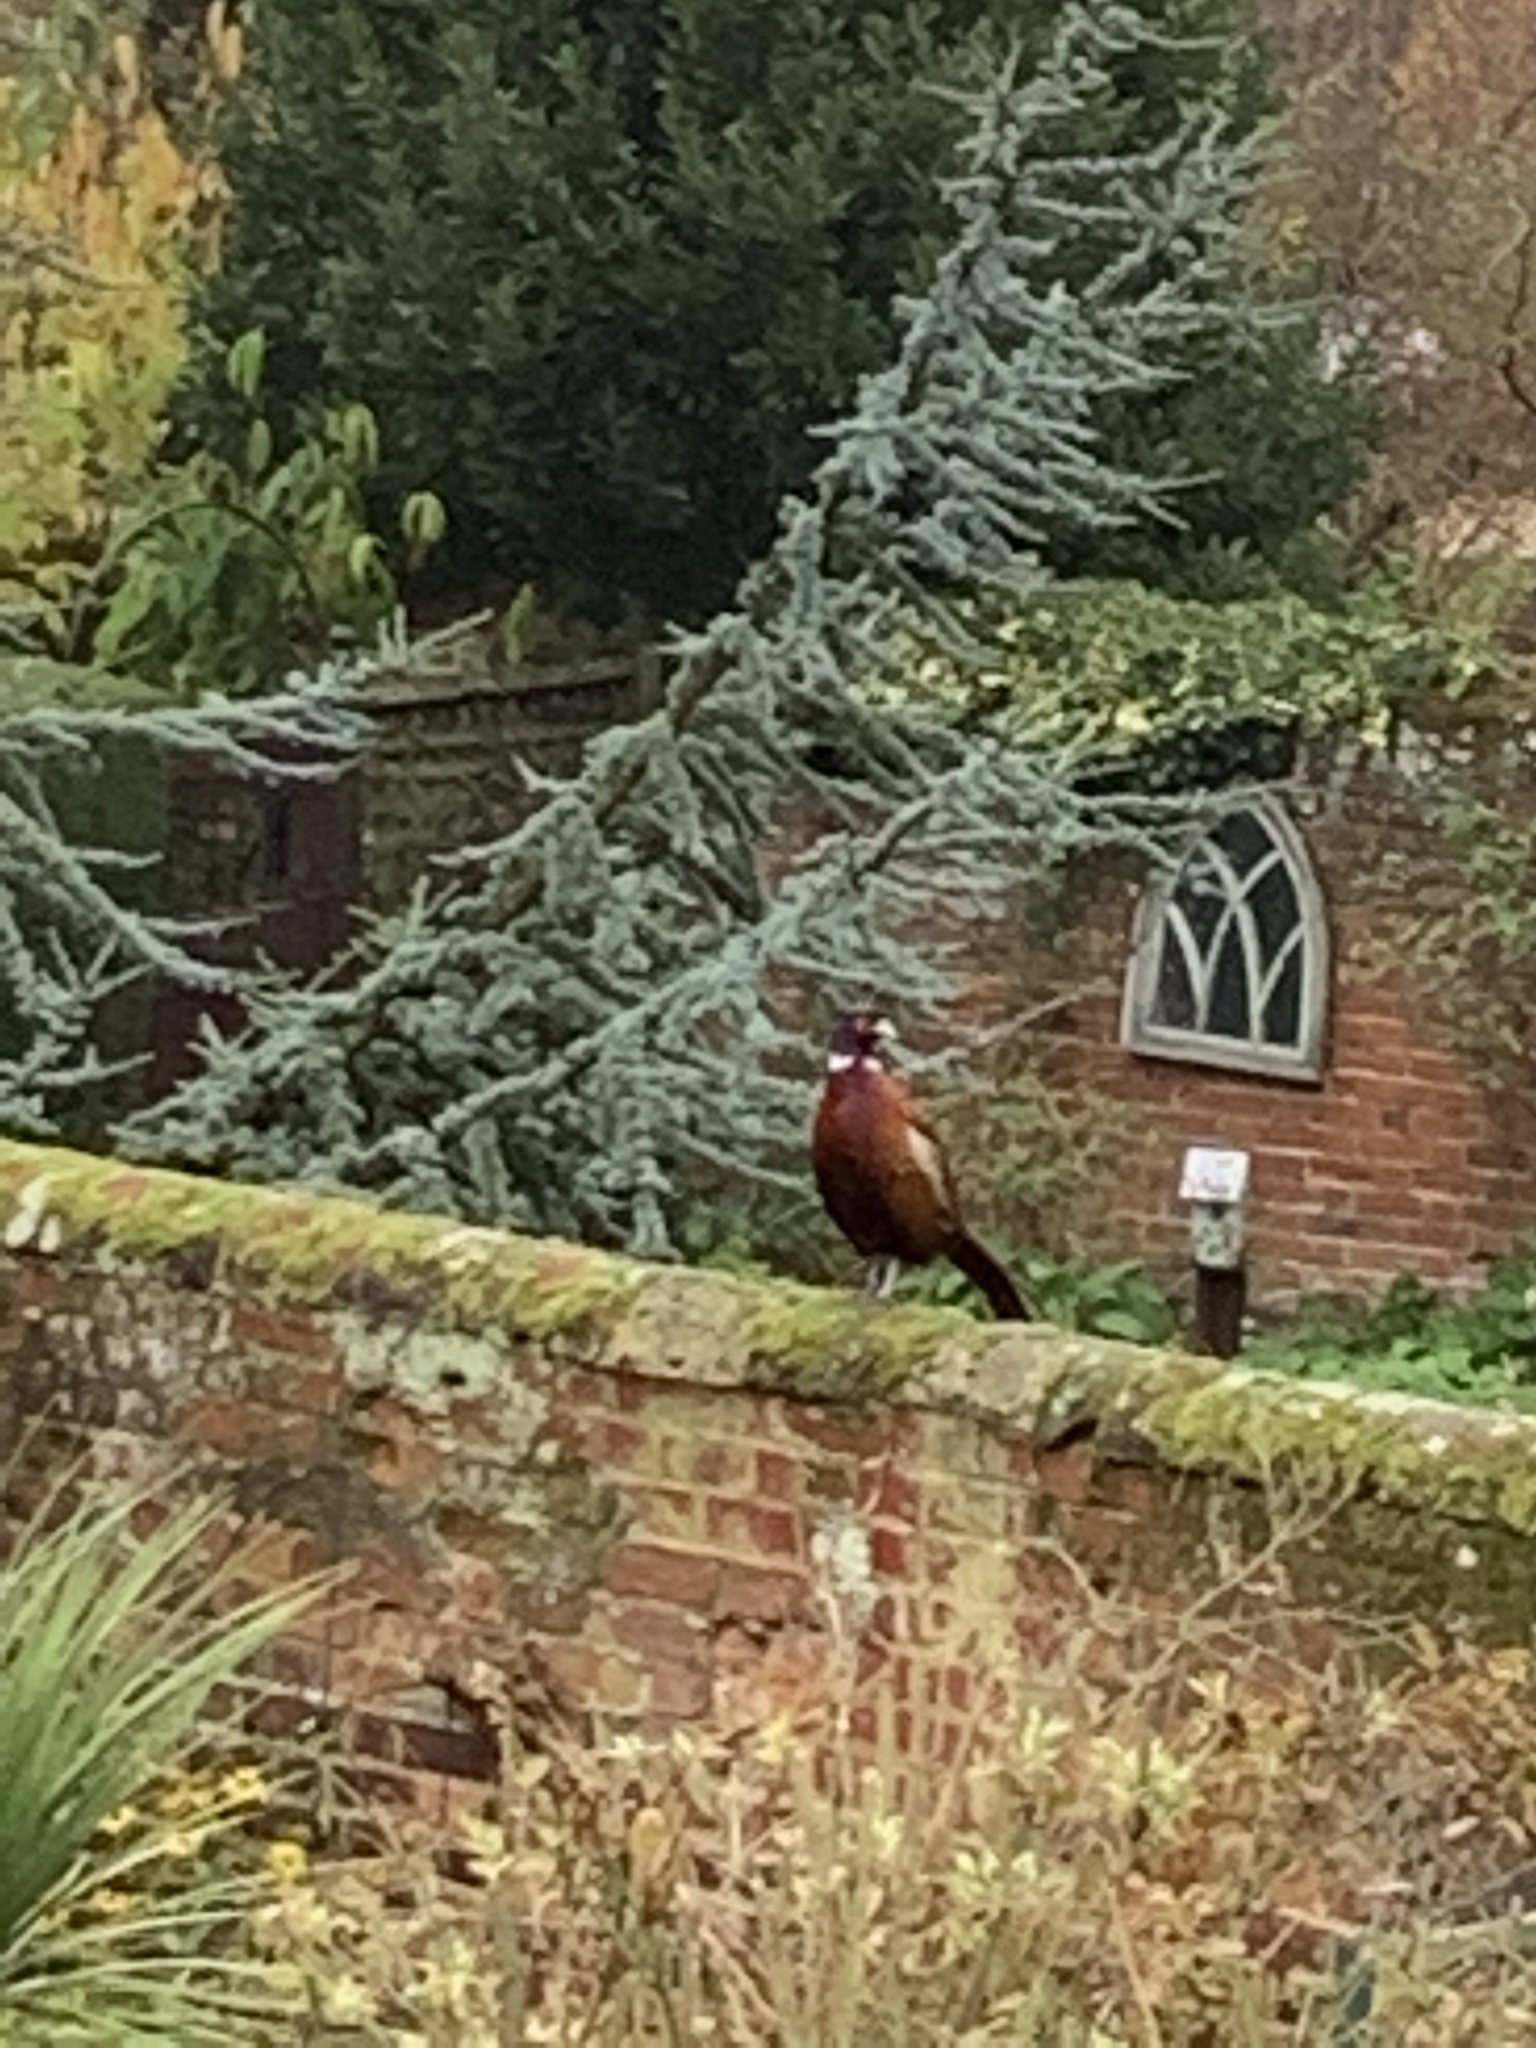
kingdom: Animalia
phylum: Chordata
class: Aves
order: Galliformes
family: Phasianidae
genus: Phasianus
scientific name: Phasianus colchicus
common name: Common pheasant
